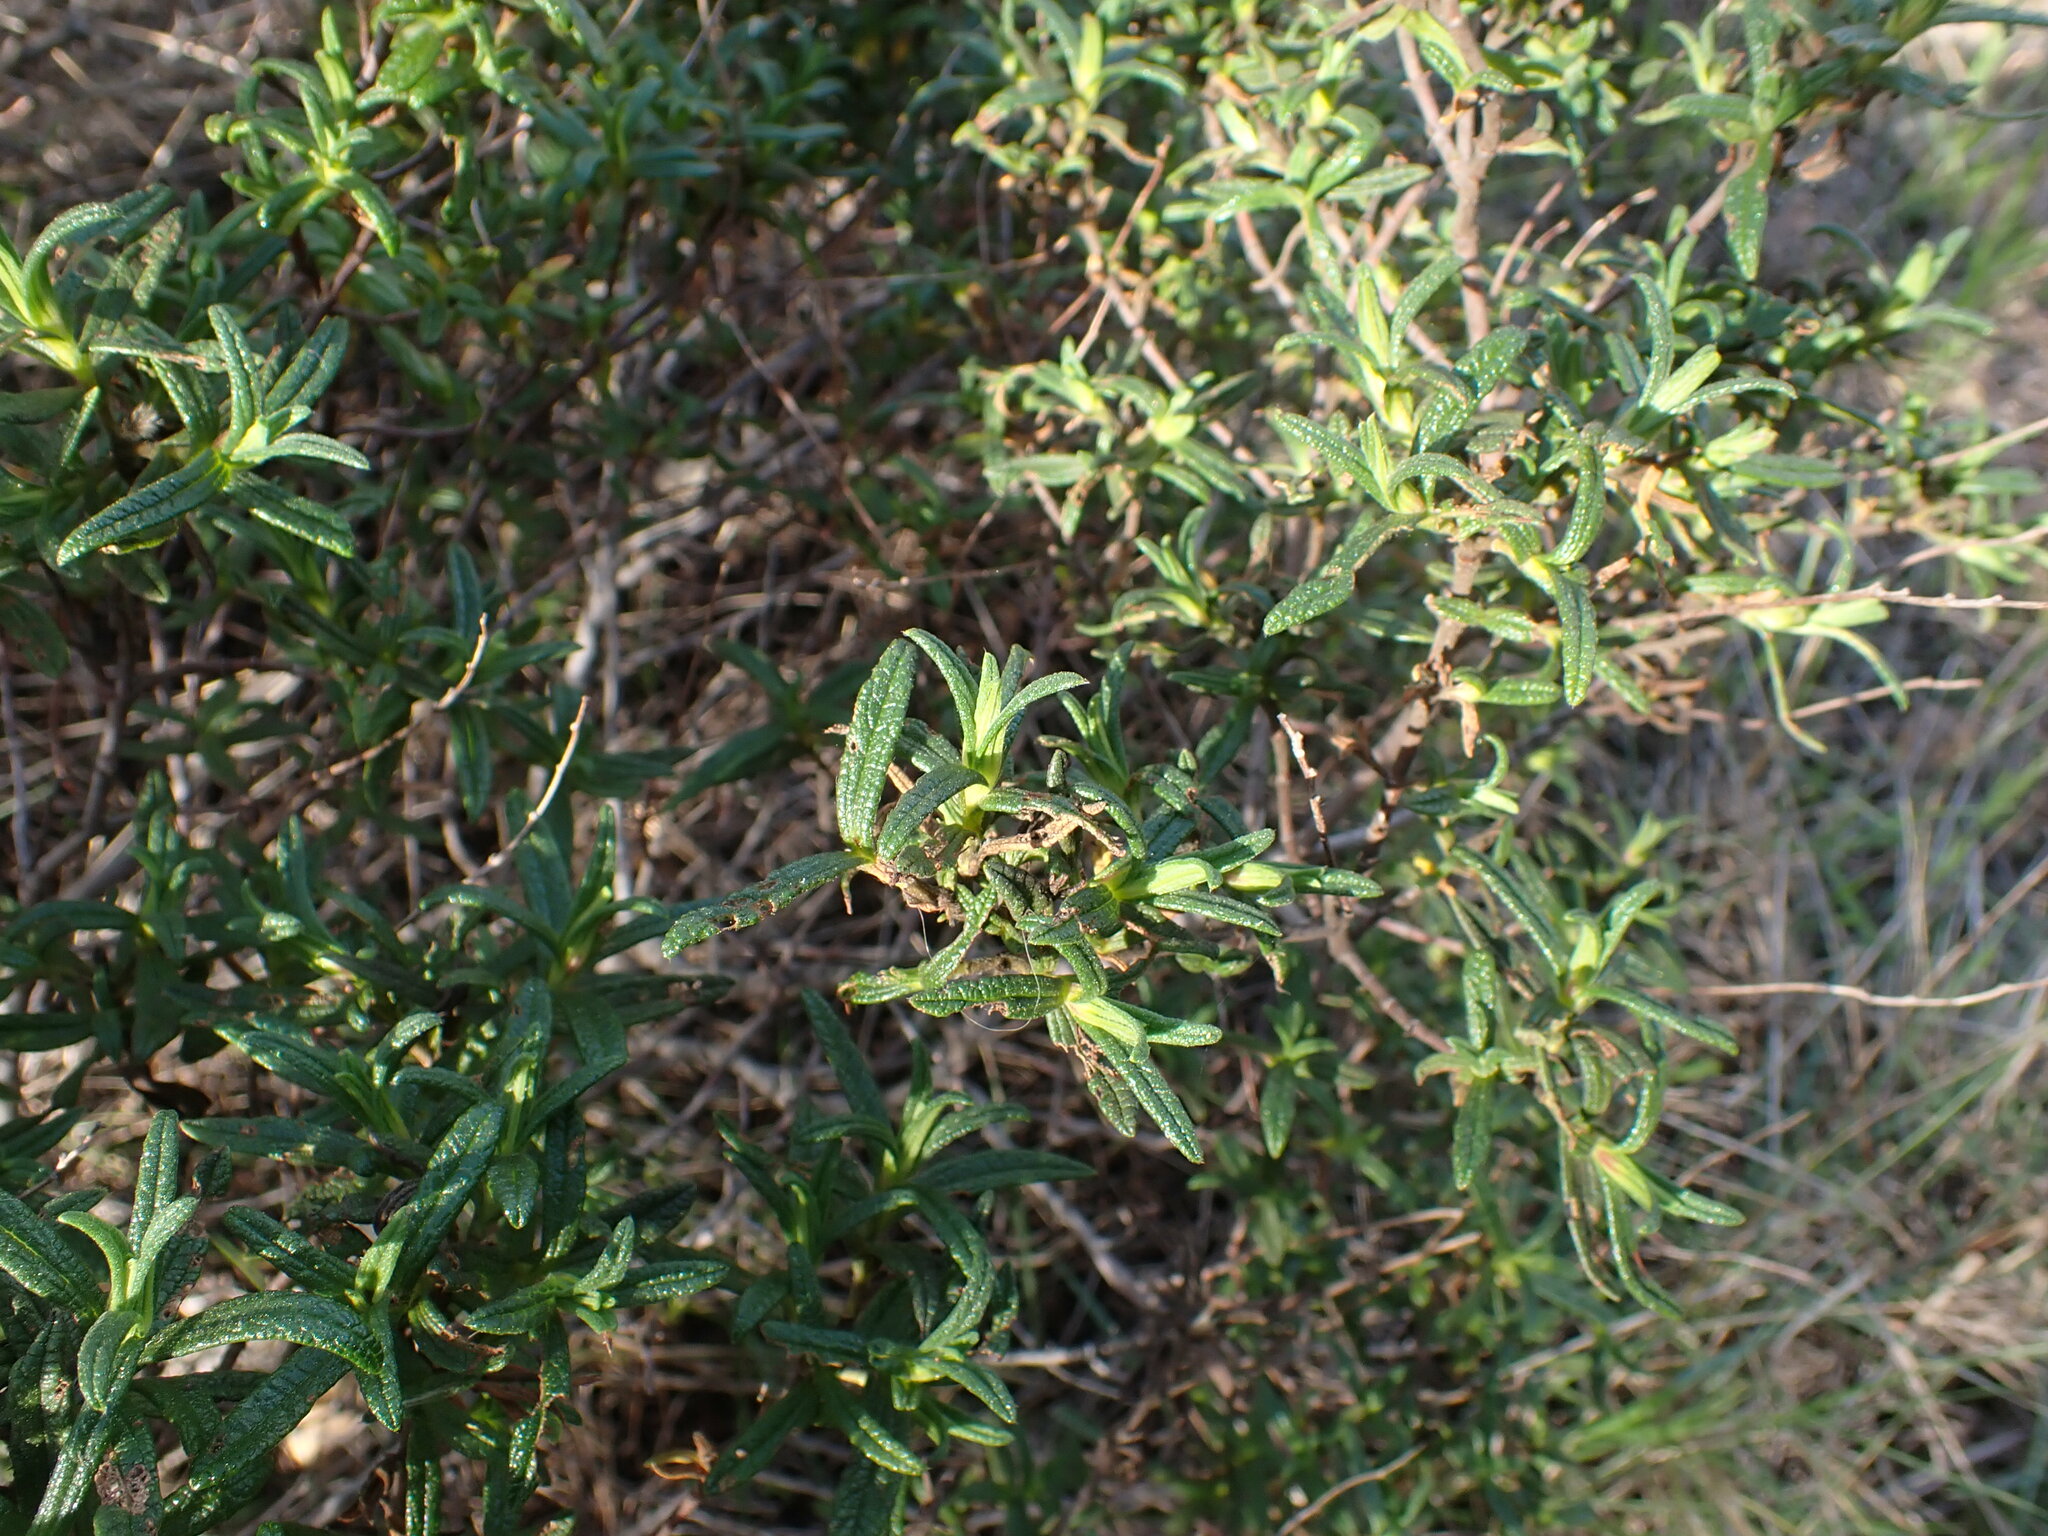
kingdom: Plantae
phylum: Tracheophyta
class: Magnoliopsida
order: Malvales
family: Cistaceae
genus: Cistus
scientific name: Cistus monspeliensis
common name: Montpelier cistus
